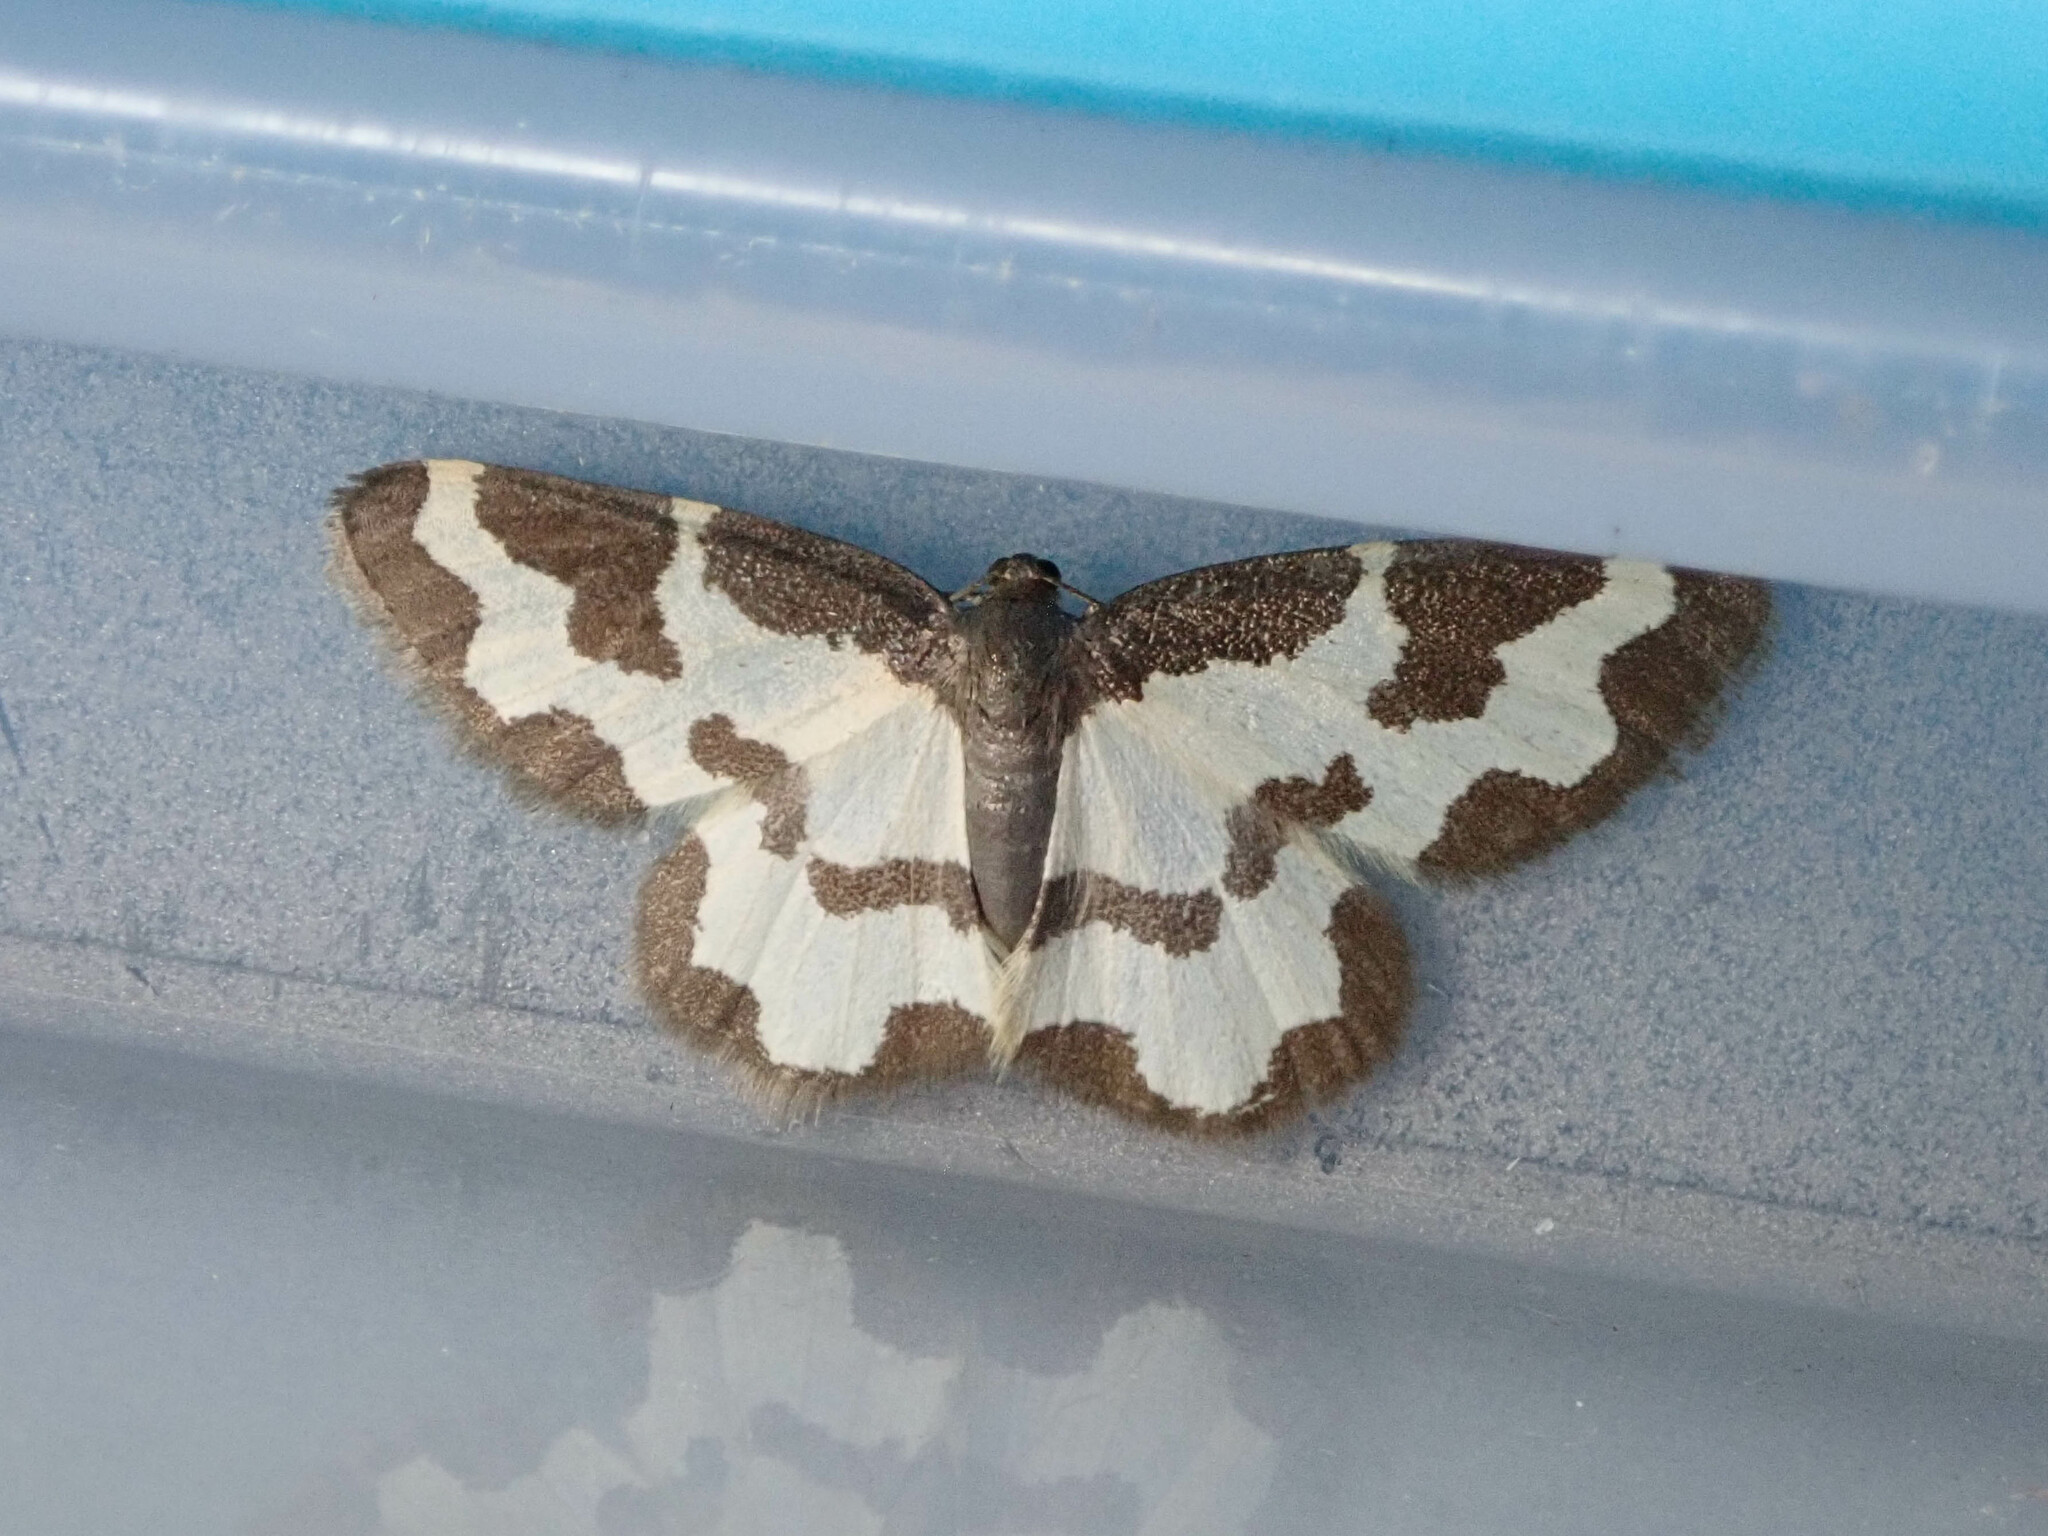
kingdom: Animalia
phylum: Arthropoda
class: Insecta
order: Lepidoptera
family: Geometridae
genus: Lomaspilis
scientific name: Lomaspilis marginata
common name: Clouded border
